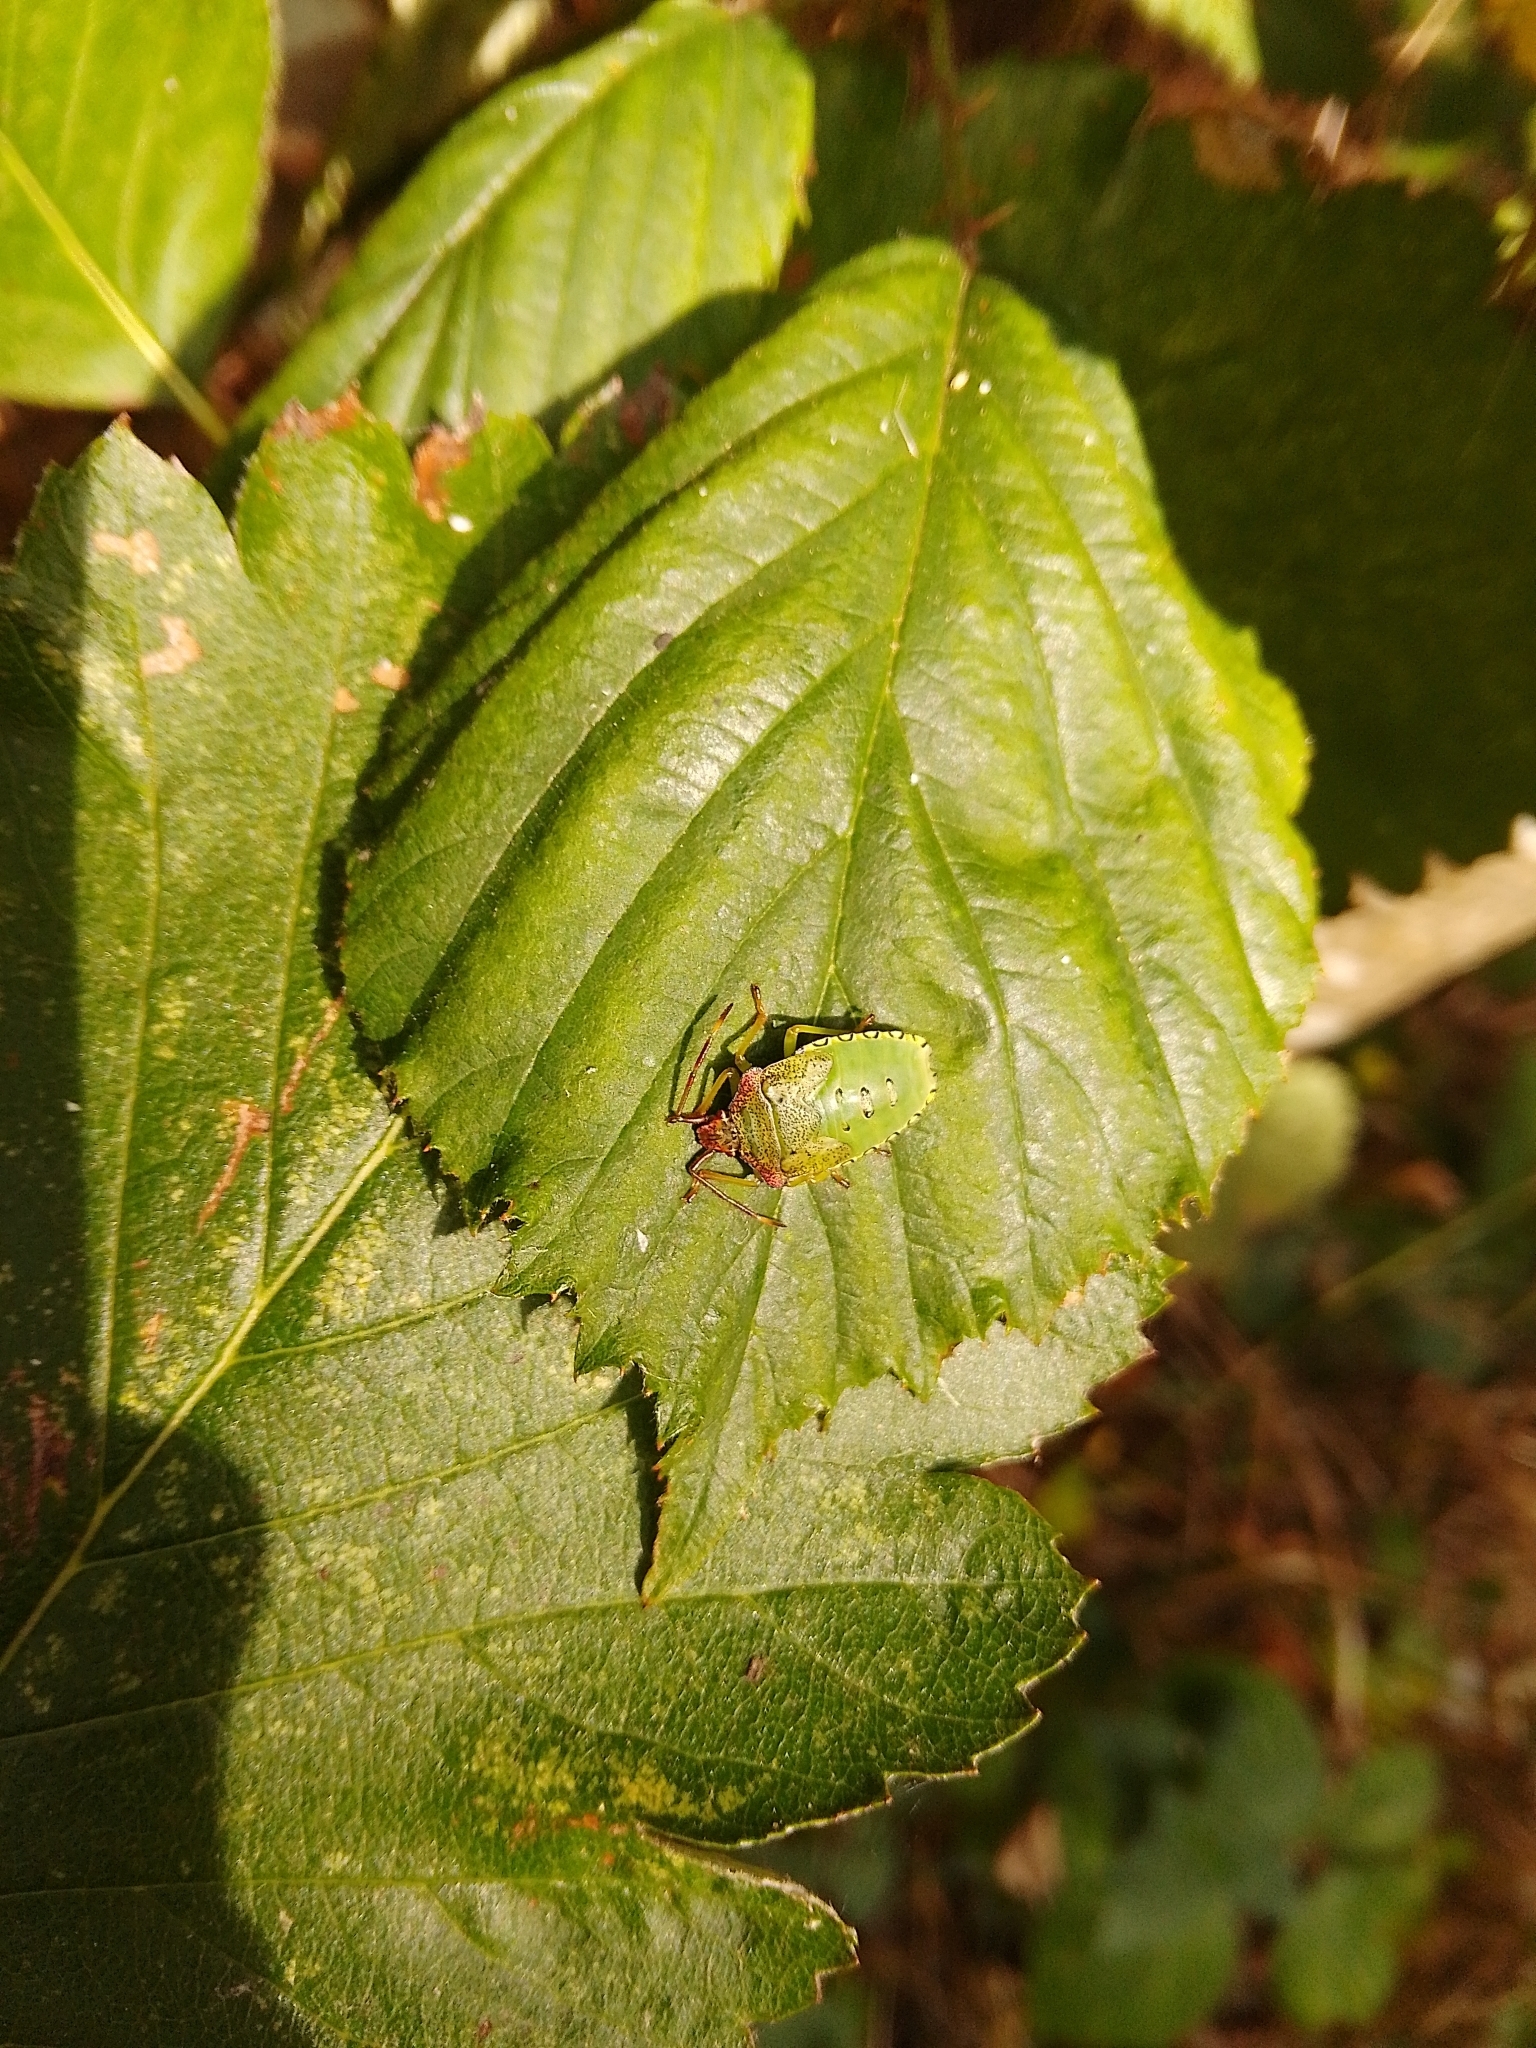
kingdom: Animalia
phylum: Arthropoda
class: Insecta
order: Hemiptera
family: Acanthosomatidae
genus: Acanthosoma
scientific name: Acanthosoma haemorrhoidale
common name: Hawthorn shieldbug
